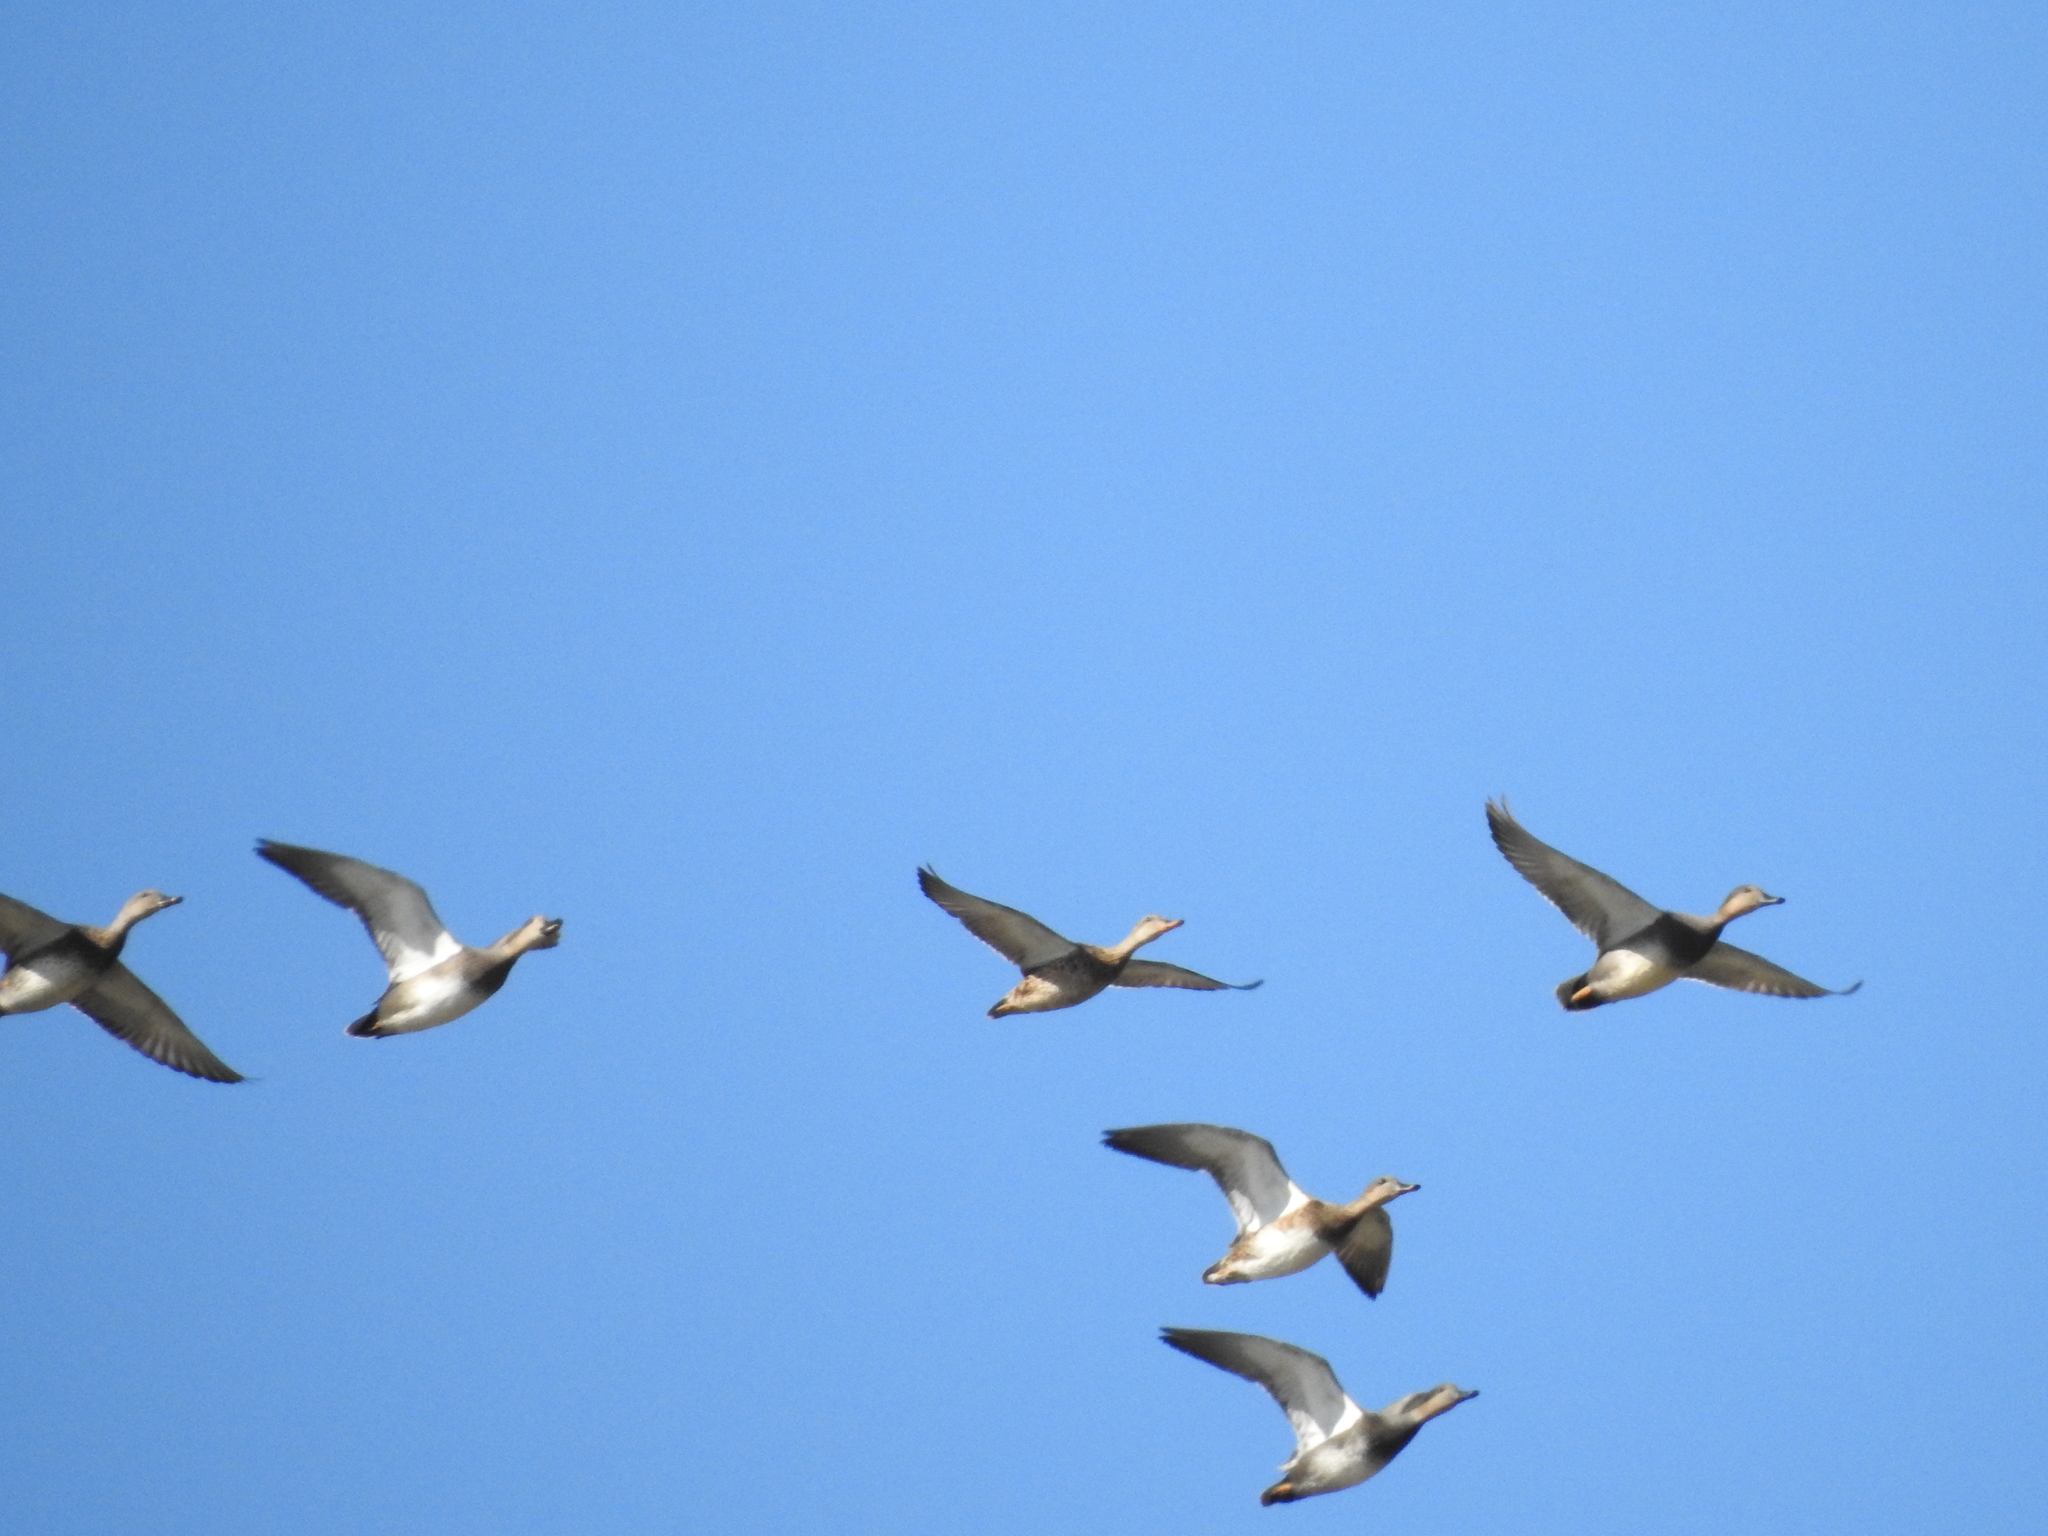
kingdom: Animalia
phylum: Chordata
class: Aves
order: Anseriformes
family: Anatidae
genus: Mareca
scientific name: Mareca strepera
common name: Gadwall
